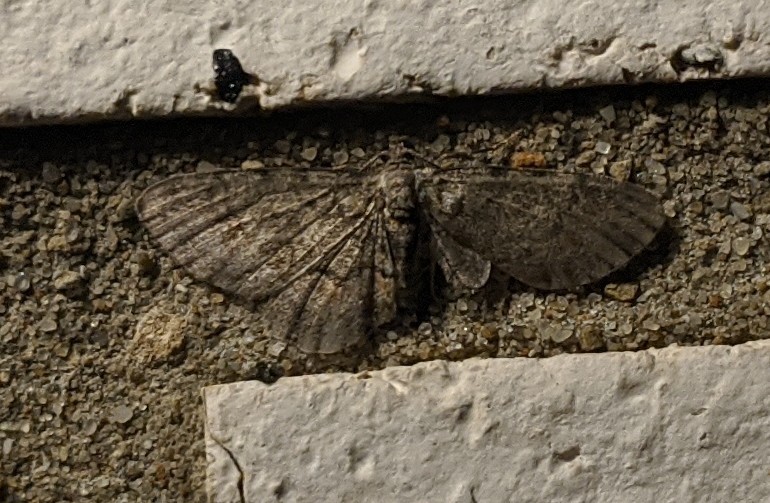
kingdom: Animalia
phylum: Arthropoda
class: Insecta
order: Lepidoptera
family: Geometridae
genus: Glenoides
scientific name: Glenoides texanaria
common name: Texas gray
